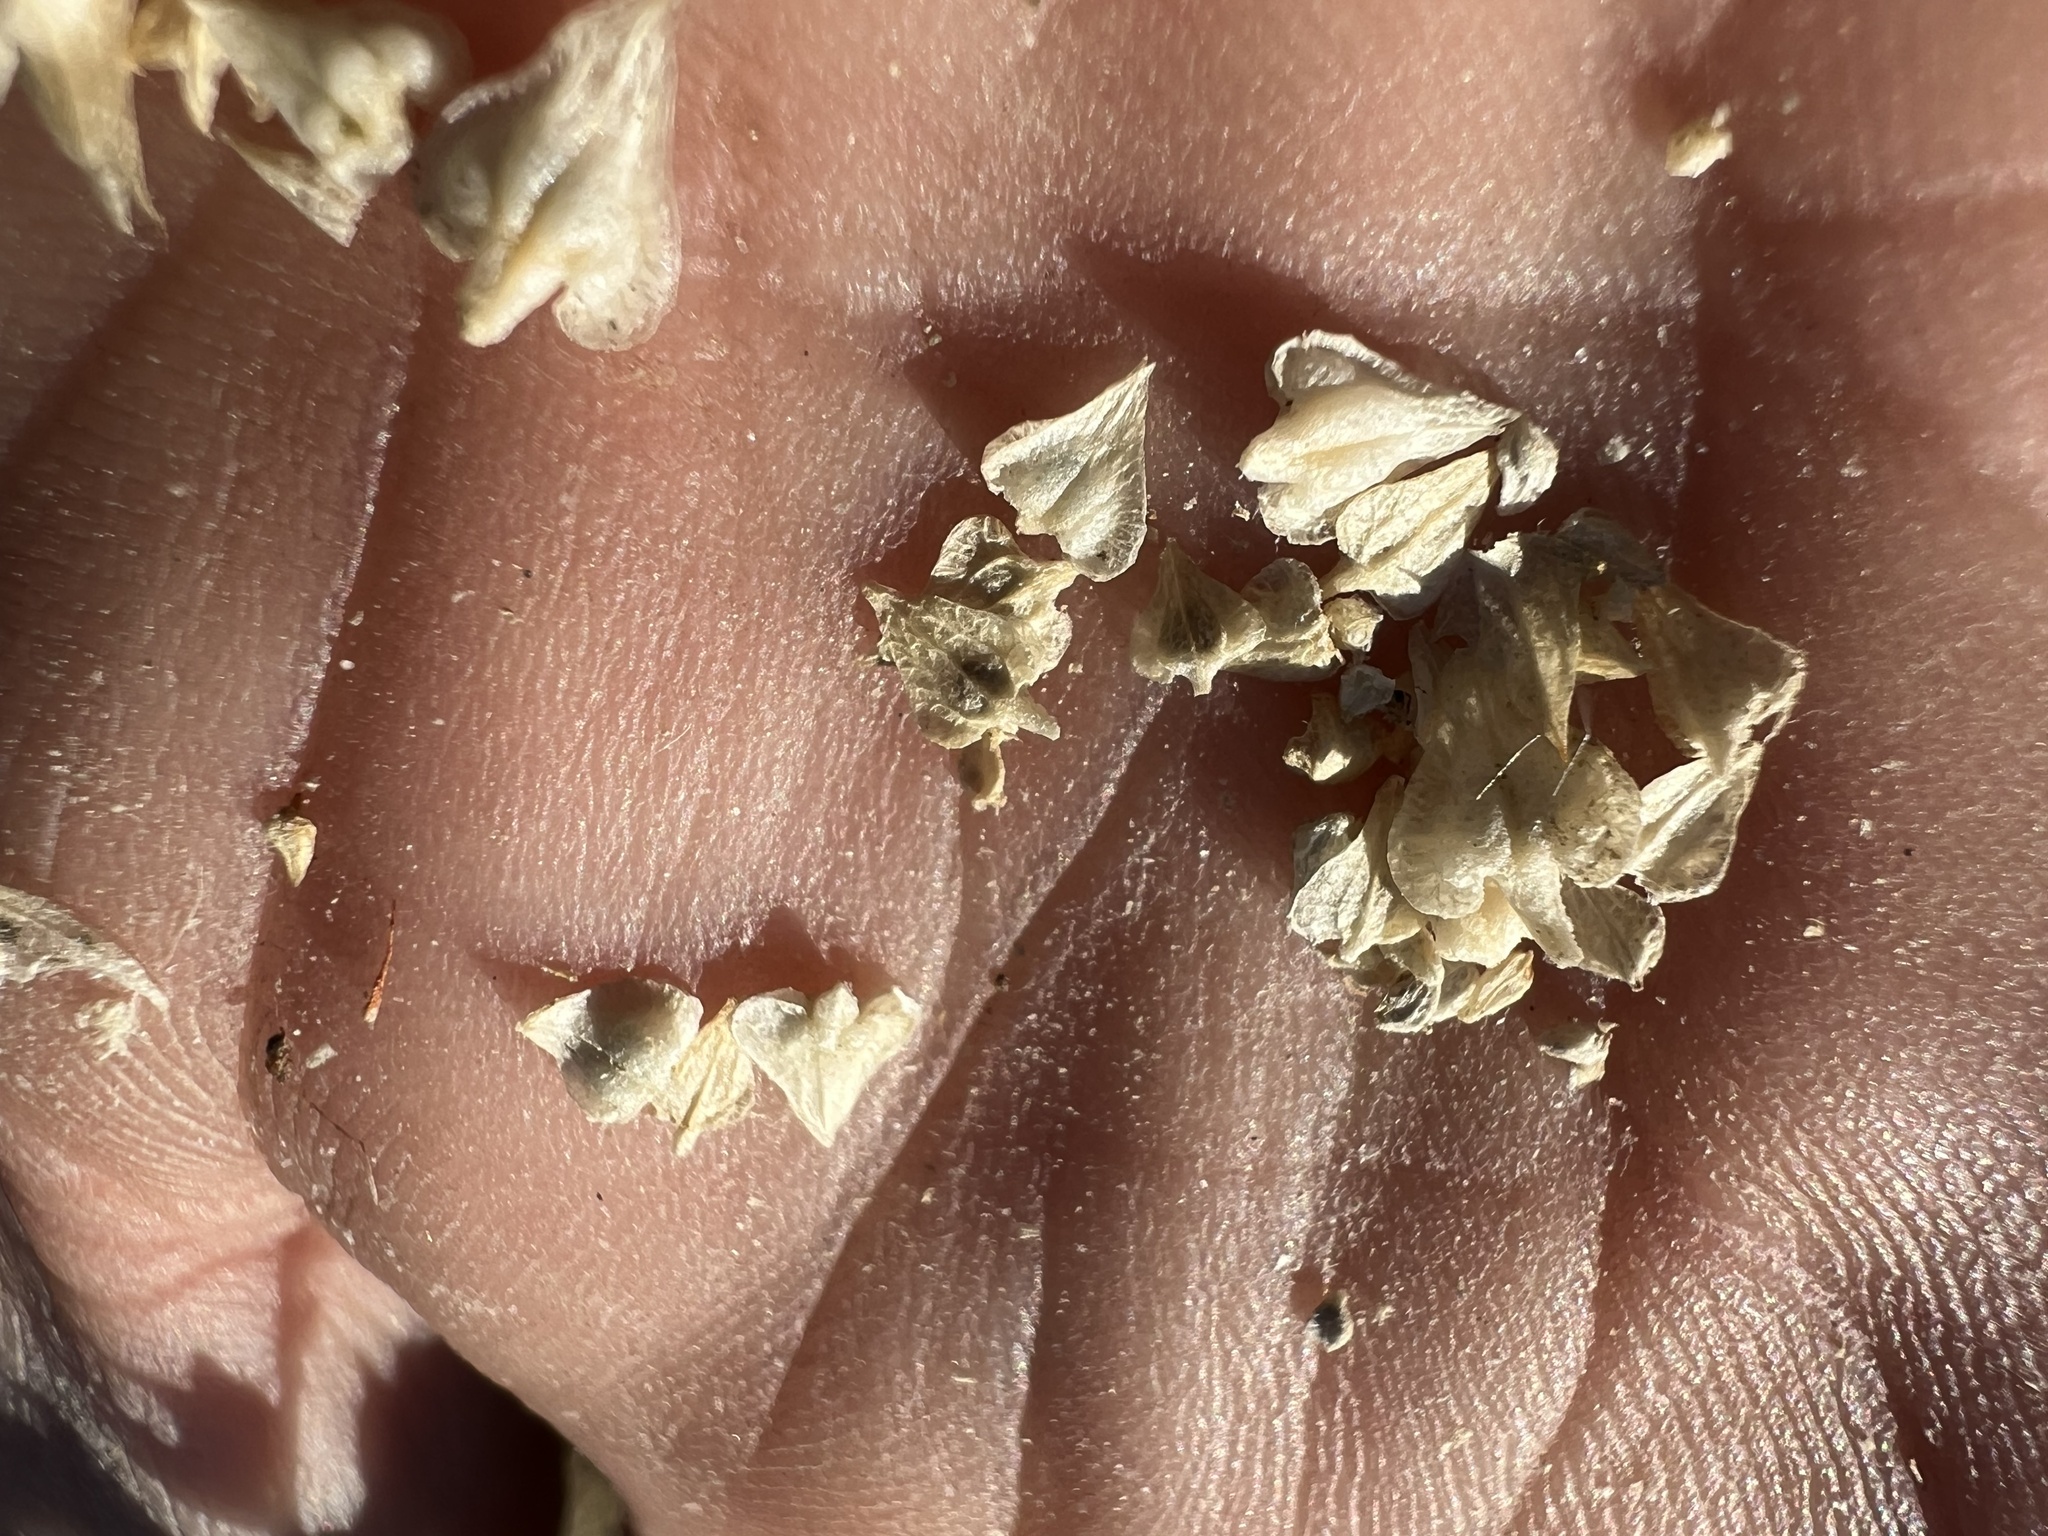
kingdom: Plantae
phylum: Tracheophyta
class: Magnoliopsida
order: Caryophyllales
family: Amaranthaceae
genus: Stutzia
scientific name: Stutzia covillei
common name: Coville's orach
